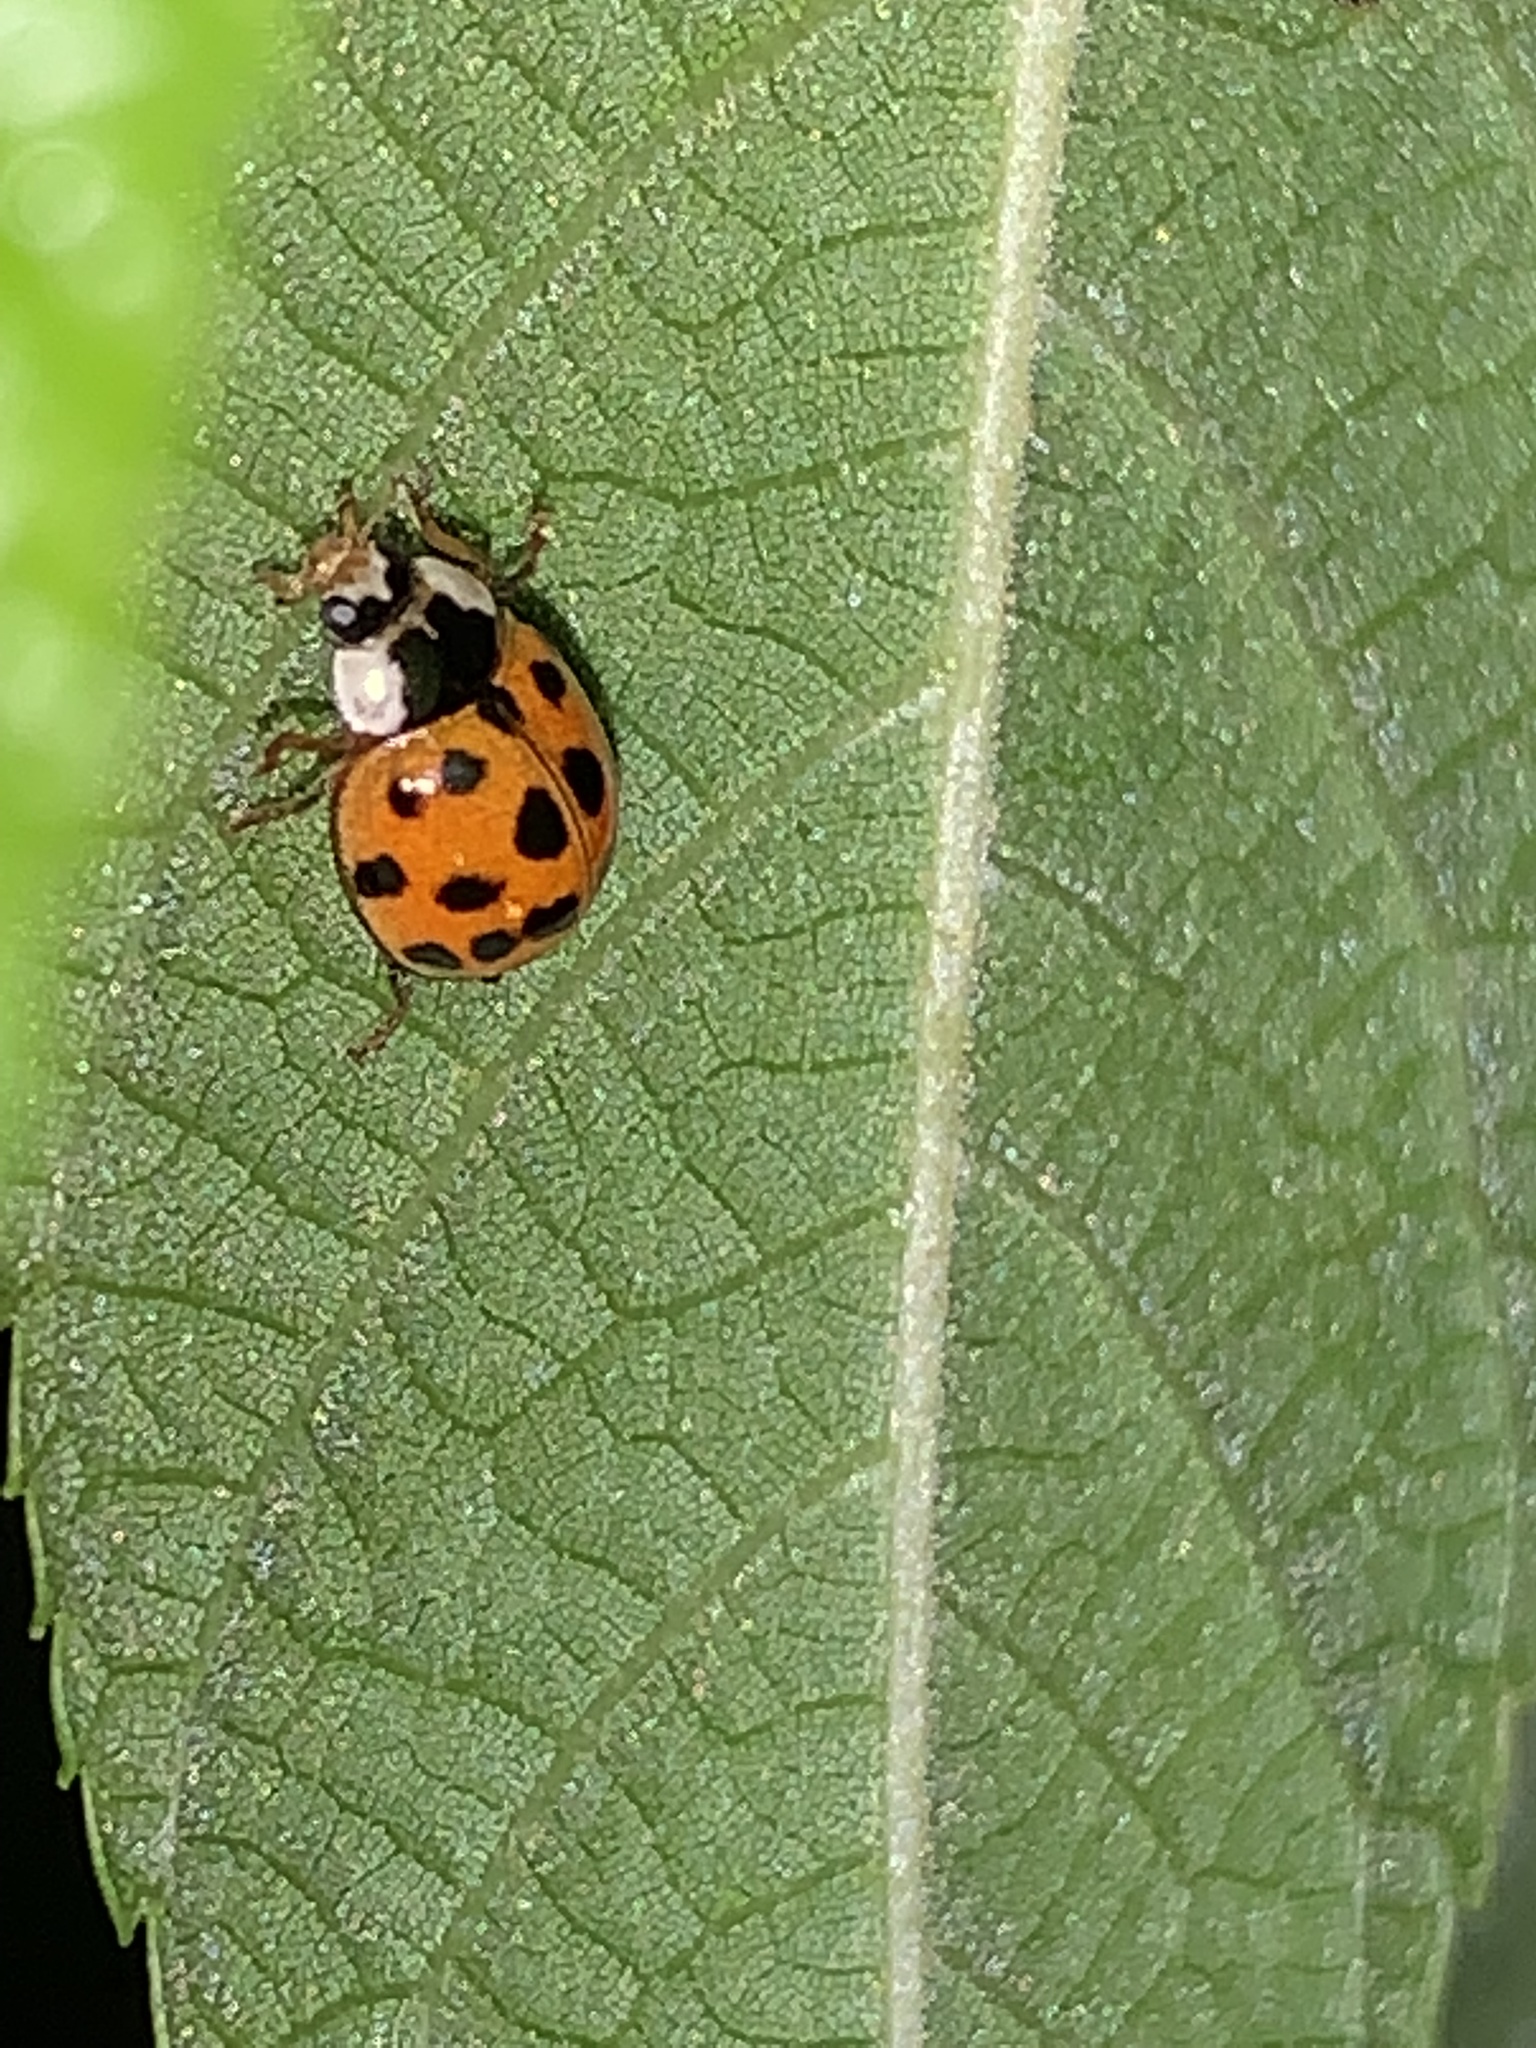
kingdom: Animalia
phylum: Arthropoda
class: Insecta
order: Coleoptera
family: Coccinellidae
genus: Harmonia
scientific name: Harmonia axyridis
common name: Harlequin ladybird
